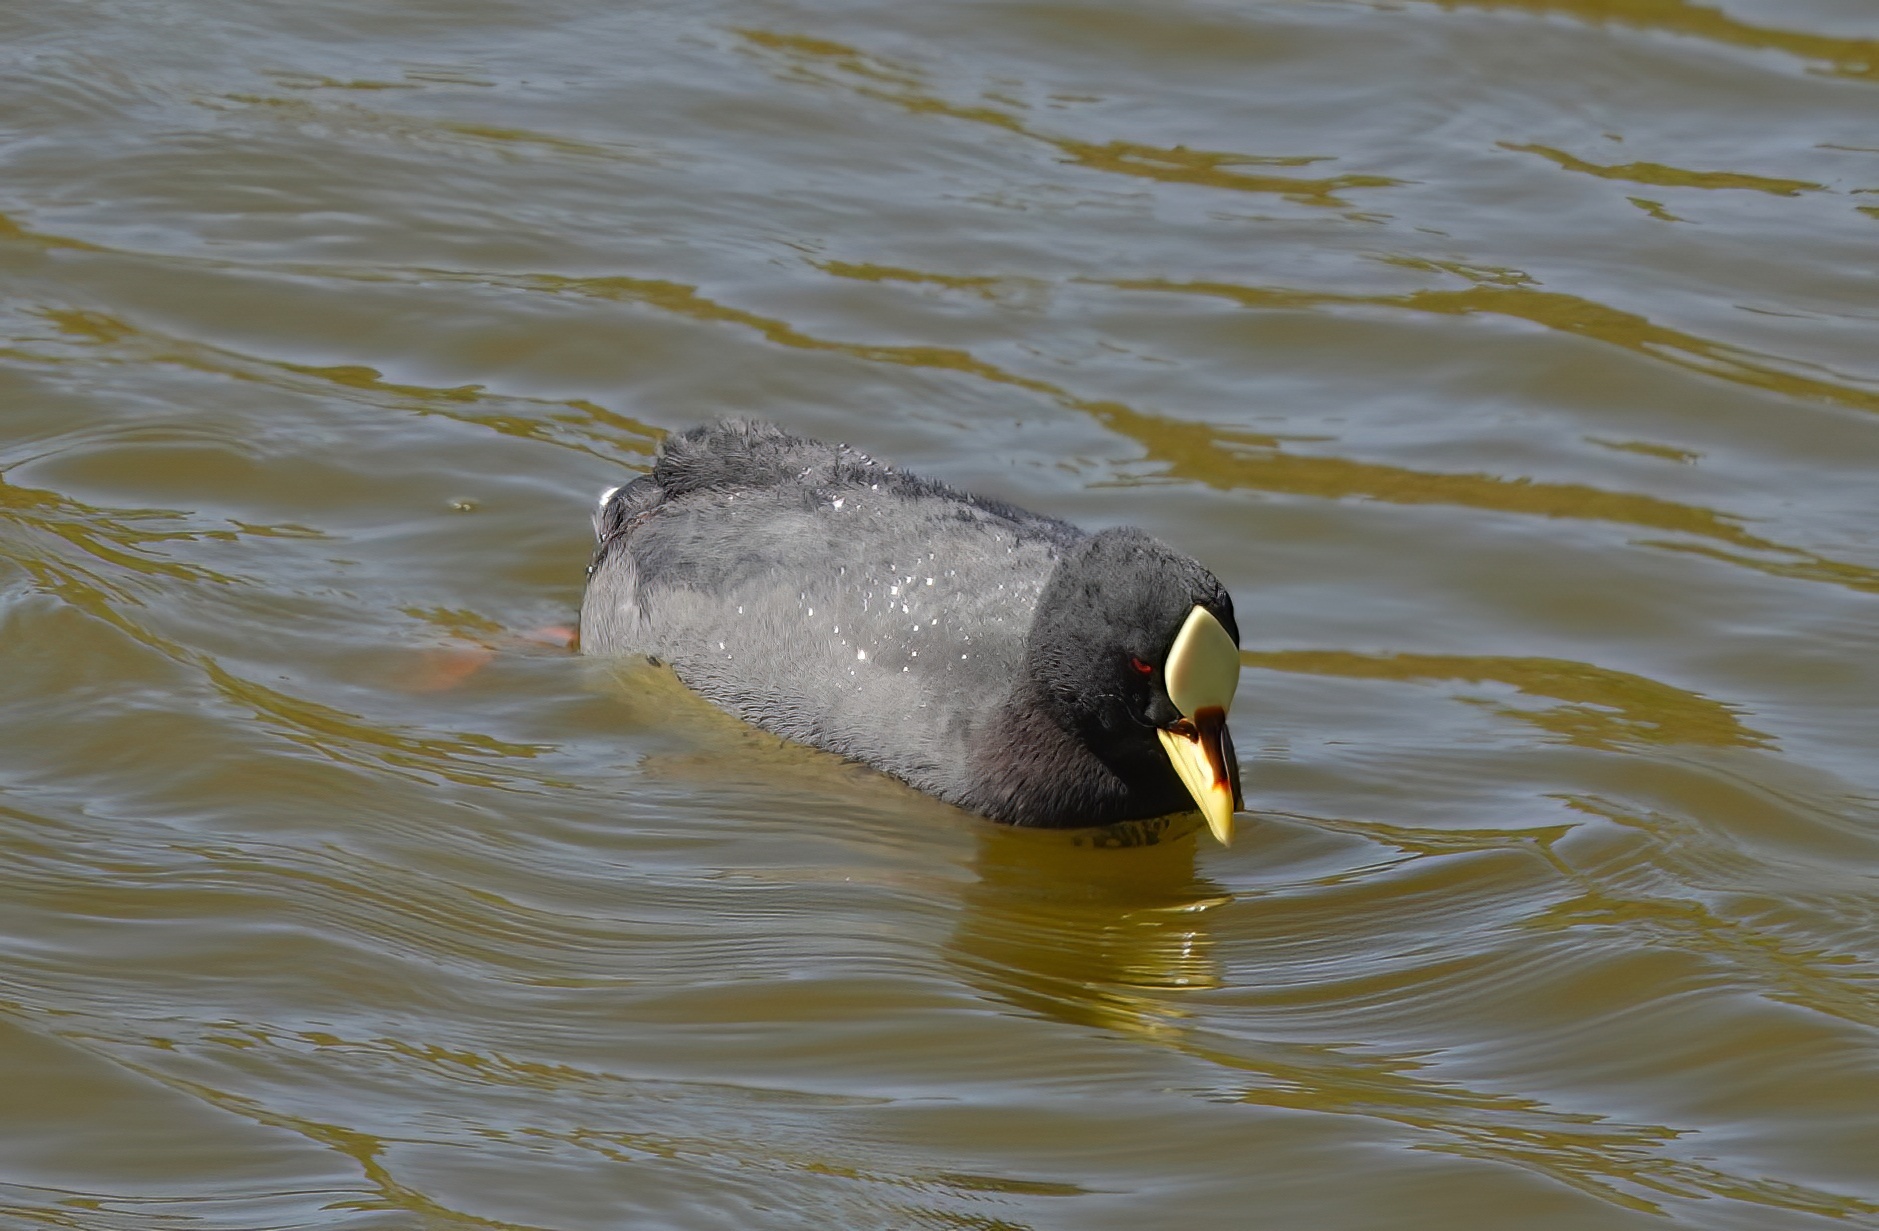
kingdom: Animalia
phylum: Chordata
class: Aves
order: Gruiformes
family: Rallidae
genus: Fulica
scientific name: Fulica armillata
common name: Red-gartered coot
